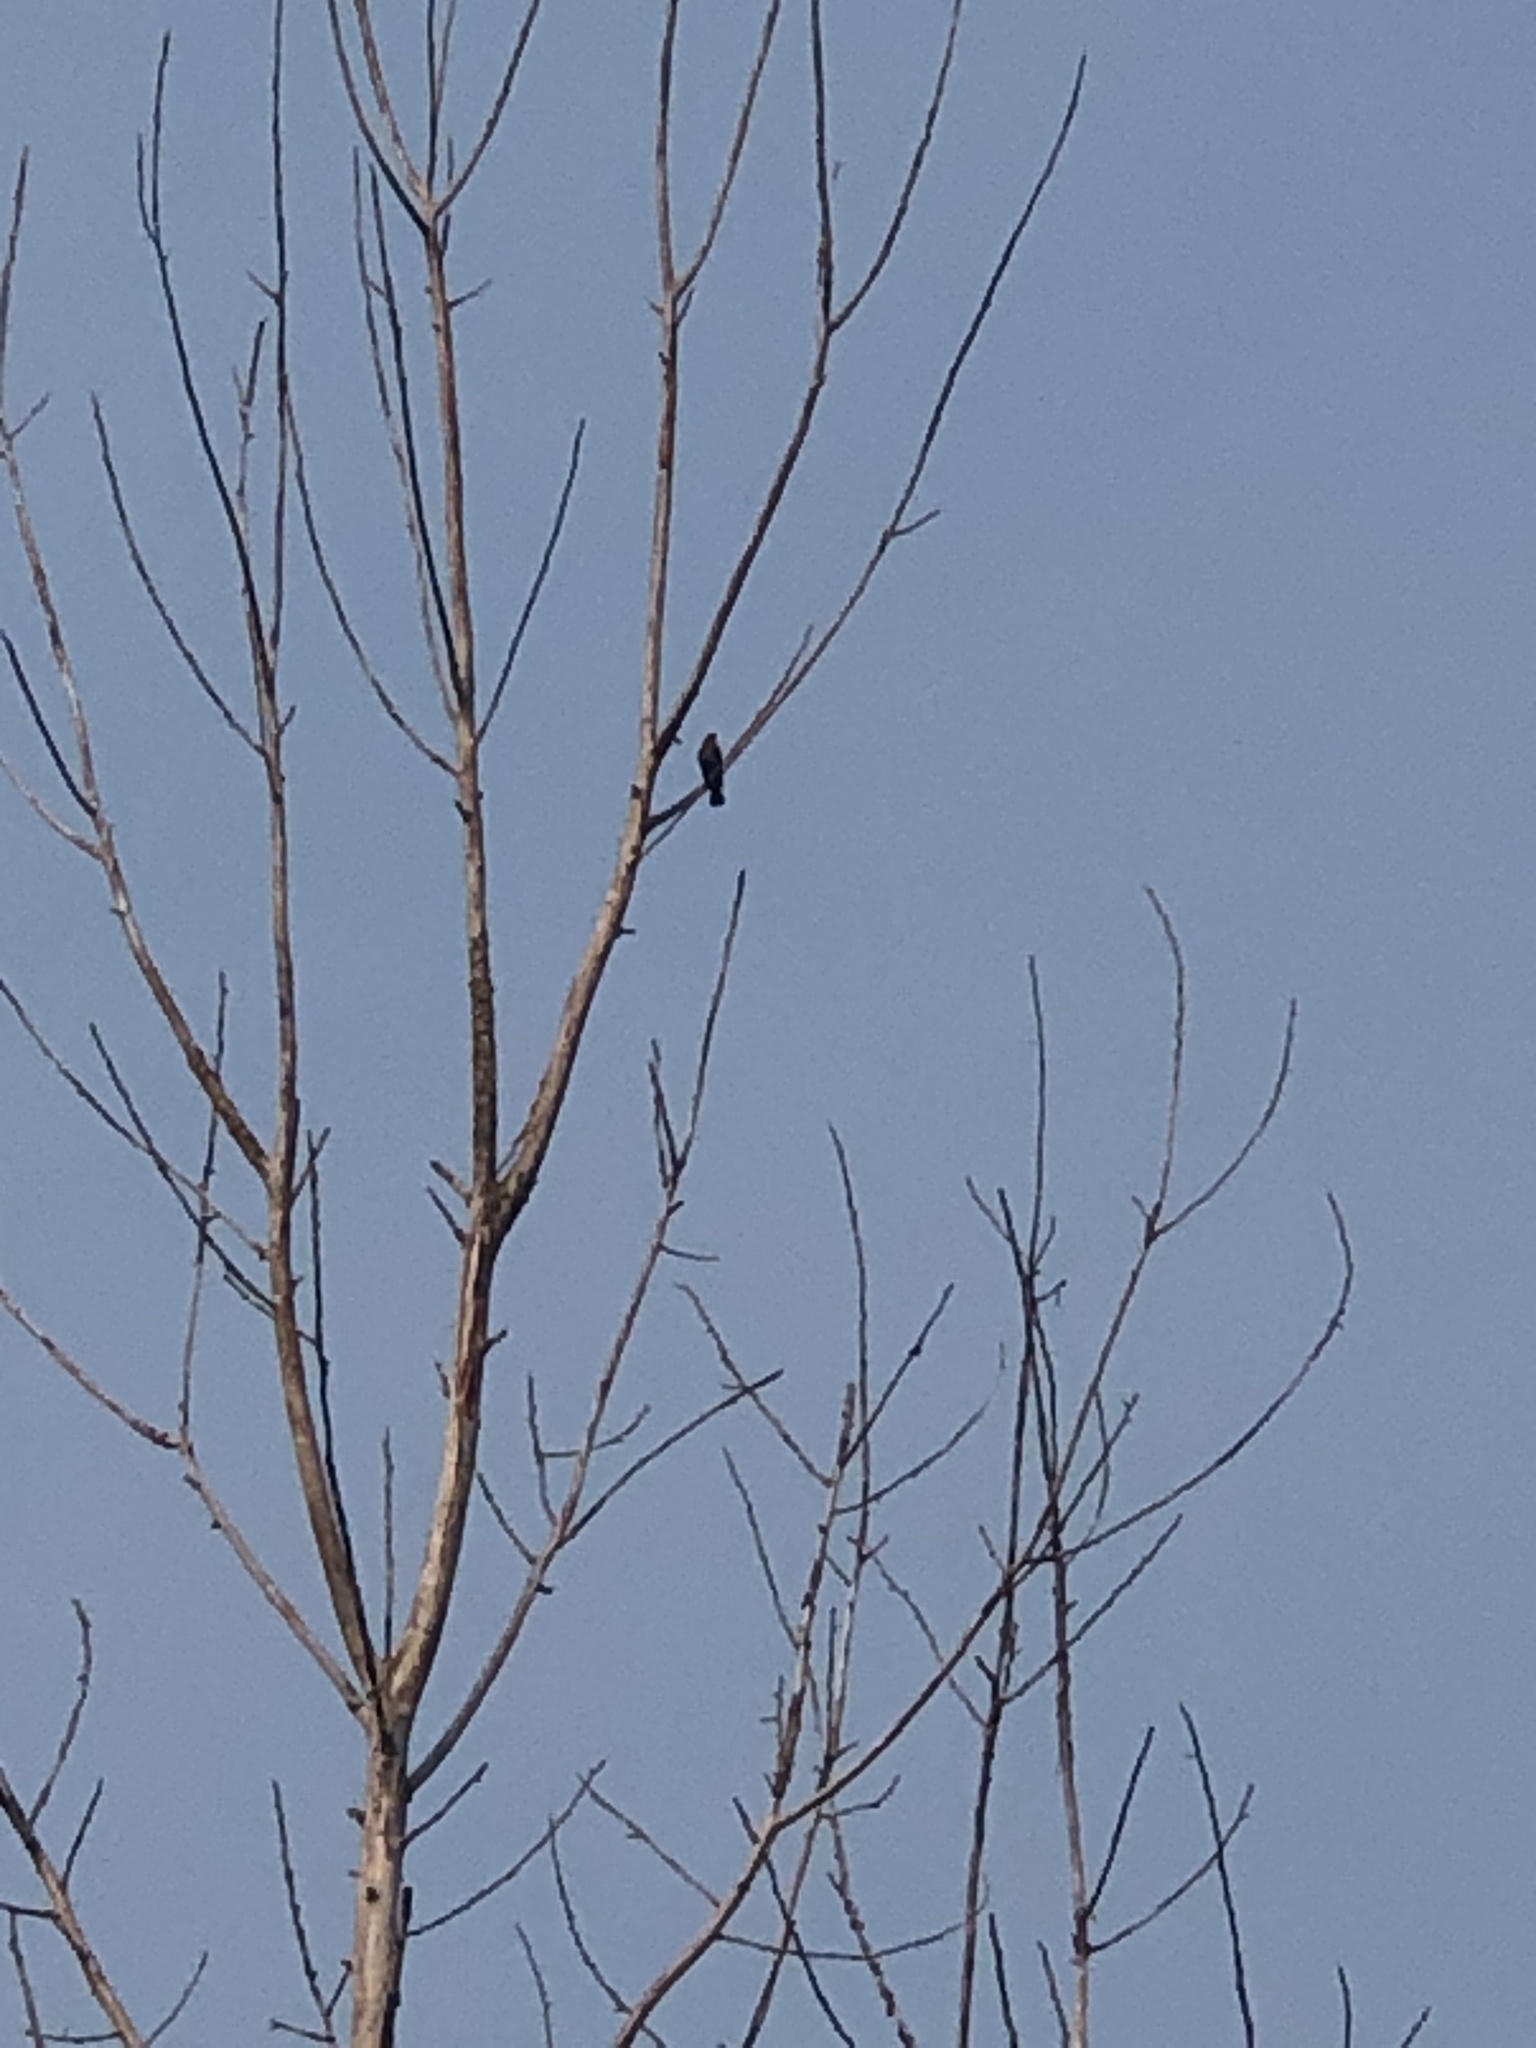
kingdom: Animalia
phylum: Chordata
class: Aves
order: Passeriformes
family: Sturnidae
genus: Sturnus
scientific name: Sturnus vulgaris
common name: Common starling
